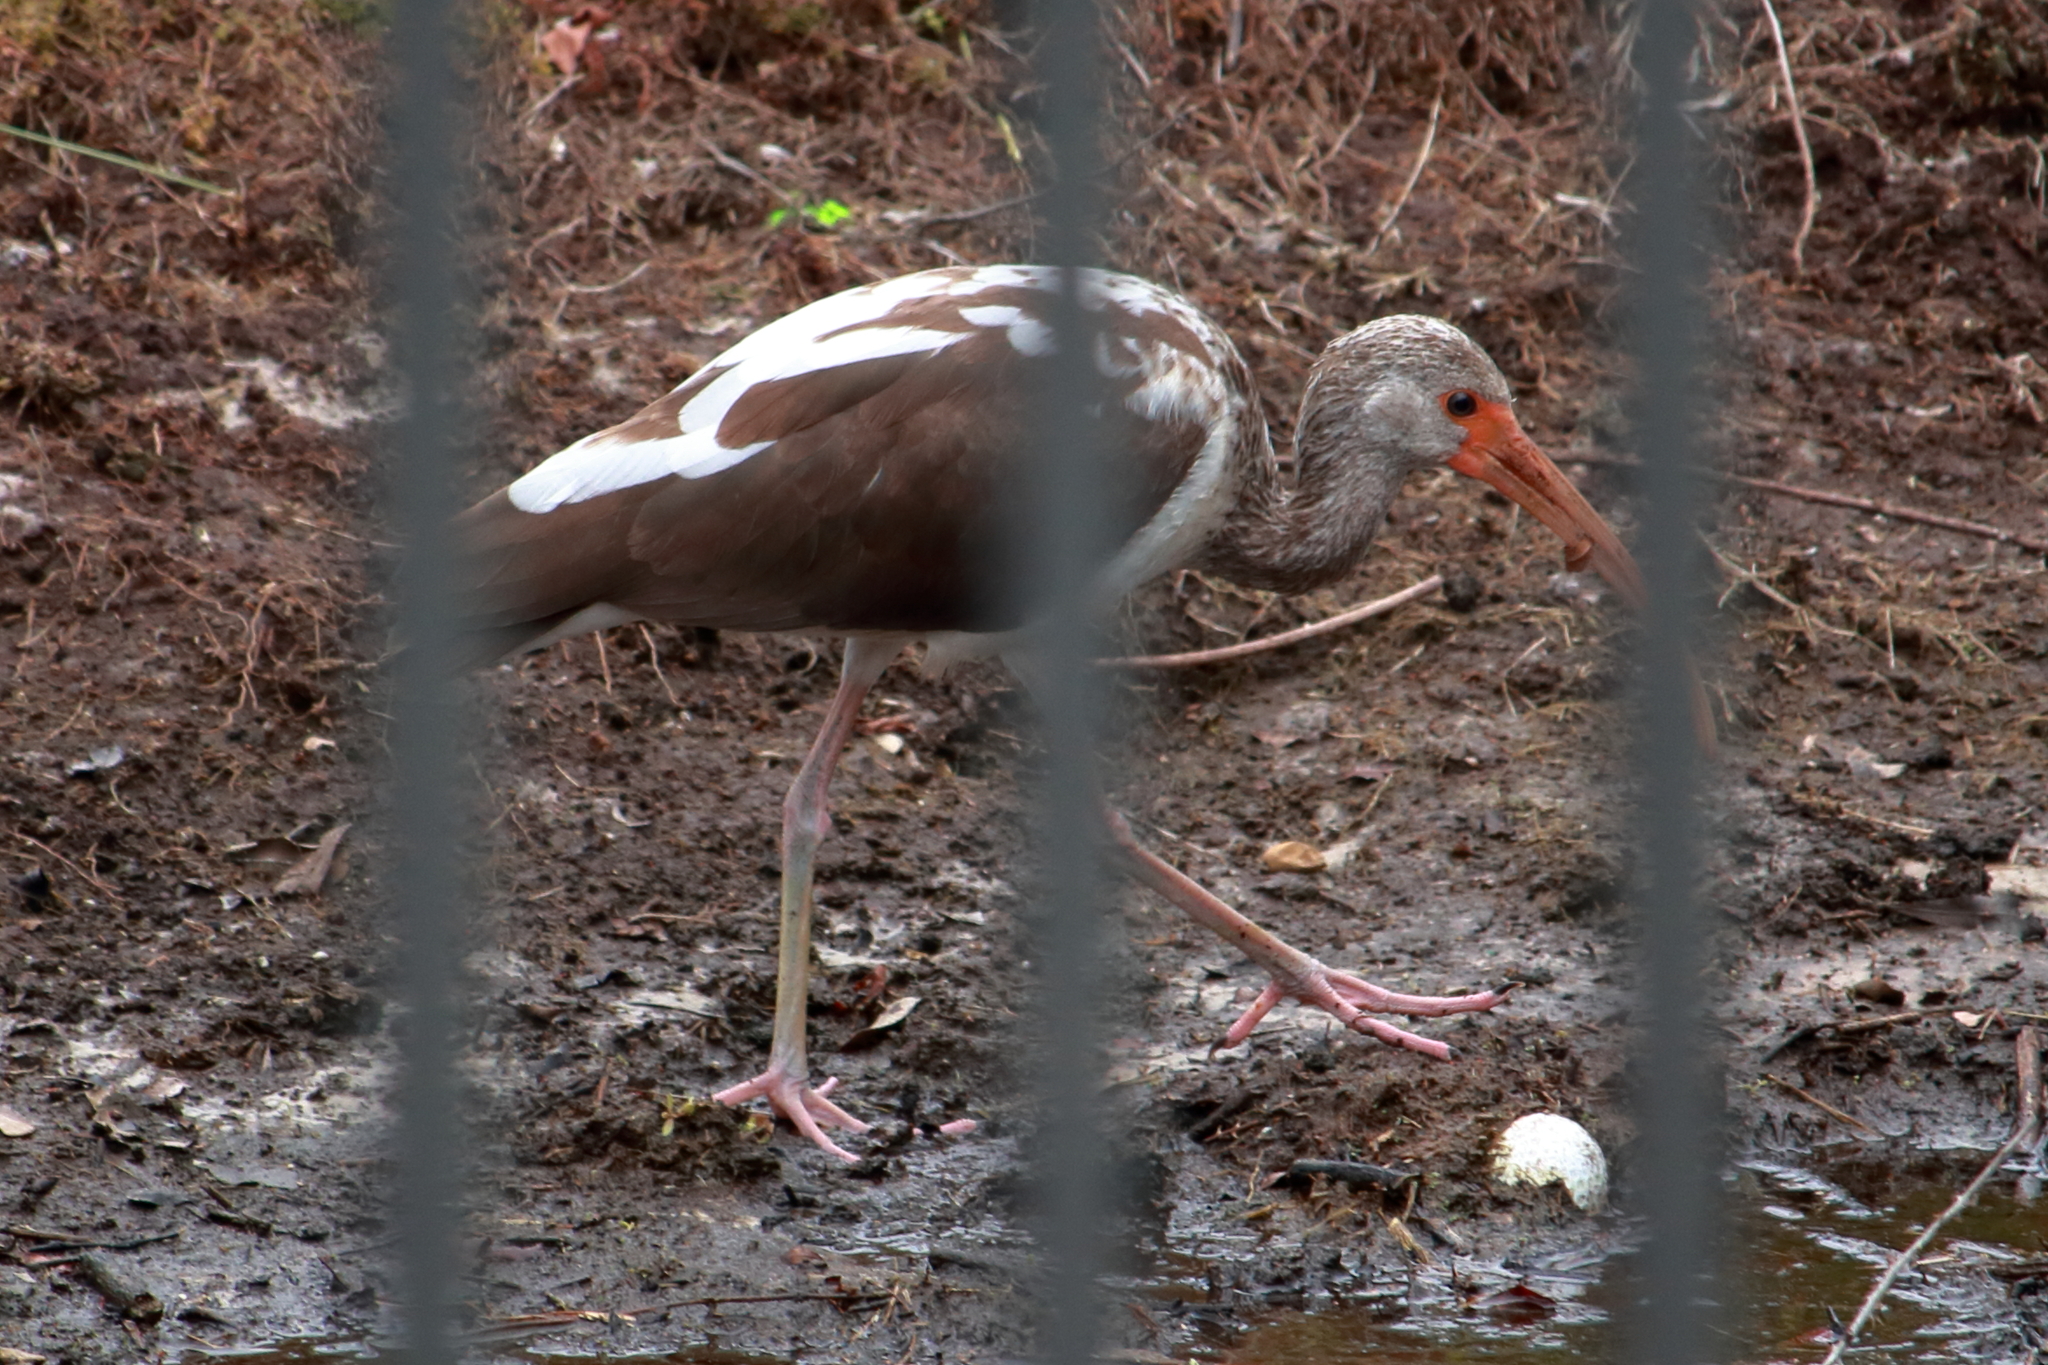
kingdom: Animalia
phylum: Chordata
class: Aves
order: Pelecaniformes
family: Threskiornithidae
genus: Eudocimus
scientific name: Eudocimus albus
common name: White ibis
